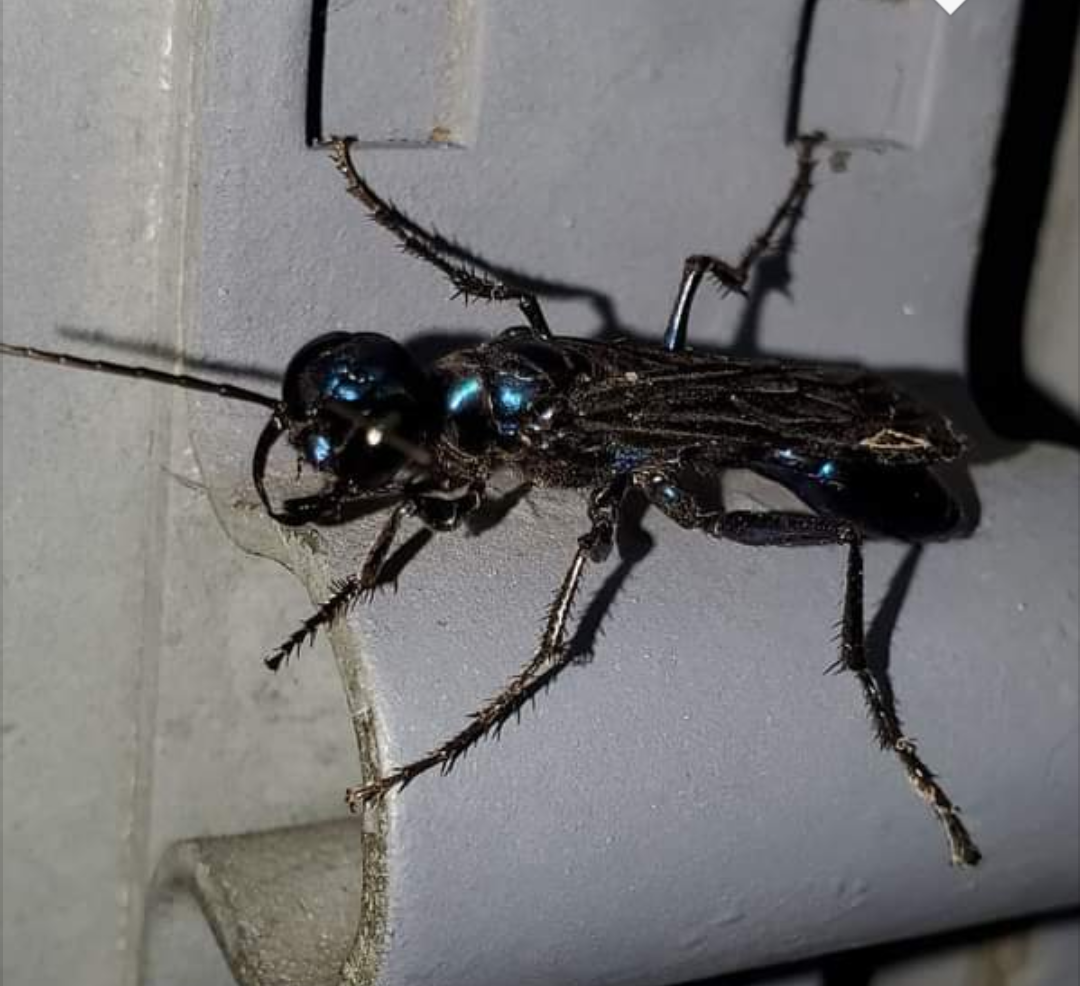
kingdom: Animalia
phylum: Arthropoda
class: Insecta
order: Hymenoptera
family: Sphecidae
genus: Chlorion
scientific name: Chlorion aerarium
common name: Steel-blue cricket hunter
